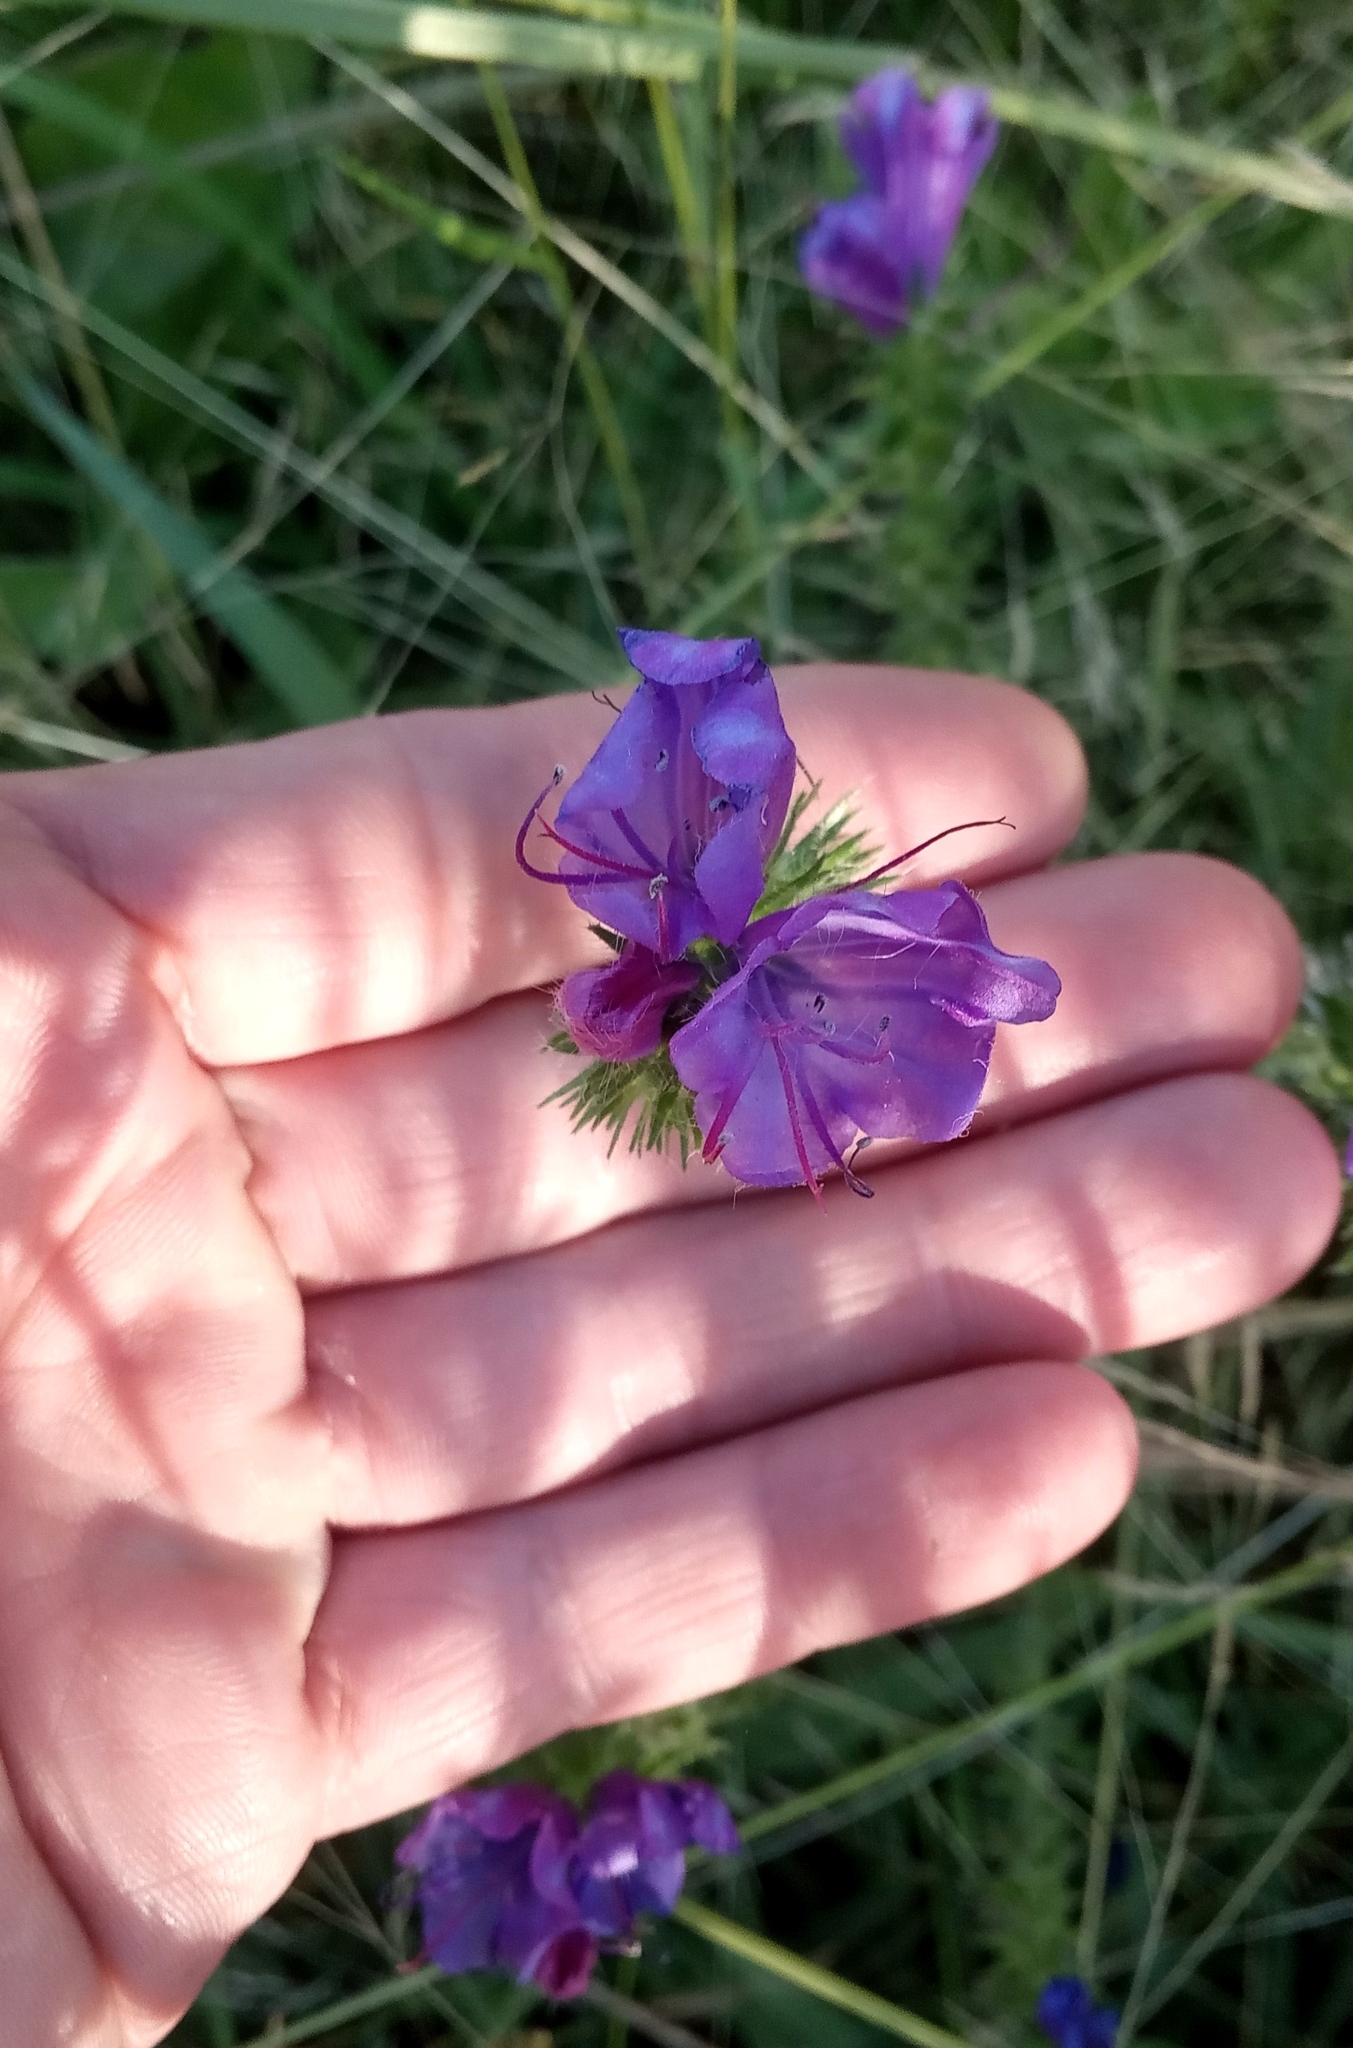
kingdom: Plantae
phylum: Tracheophyta
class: Magnoliopsida
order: Boraginales
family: Boraginaceae
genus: Echium
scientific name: Echium plantagineum
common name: Purple viper's-bugloss
